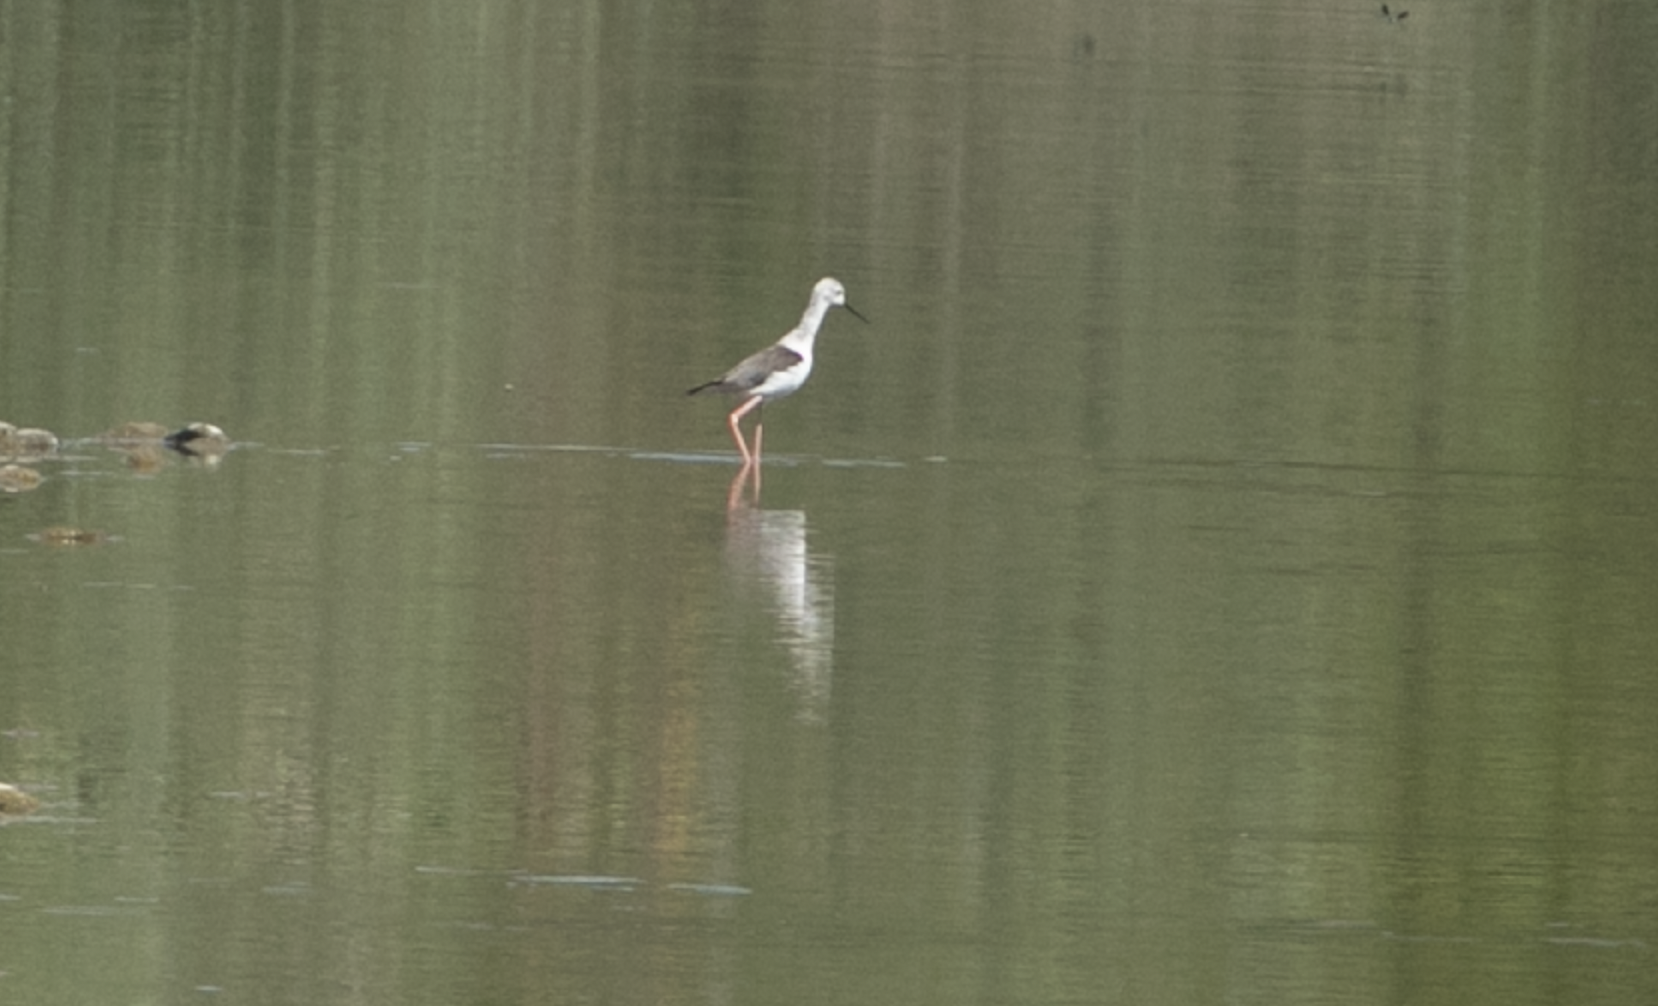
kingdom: Animalia
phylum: Chordata
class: Aves
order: Charadriiformes
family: Recurvirostridae
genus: Himantopus
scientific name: Himantopus himantopus
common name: Black-winged stilt
